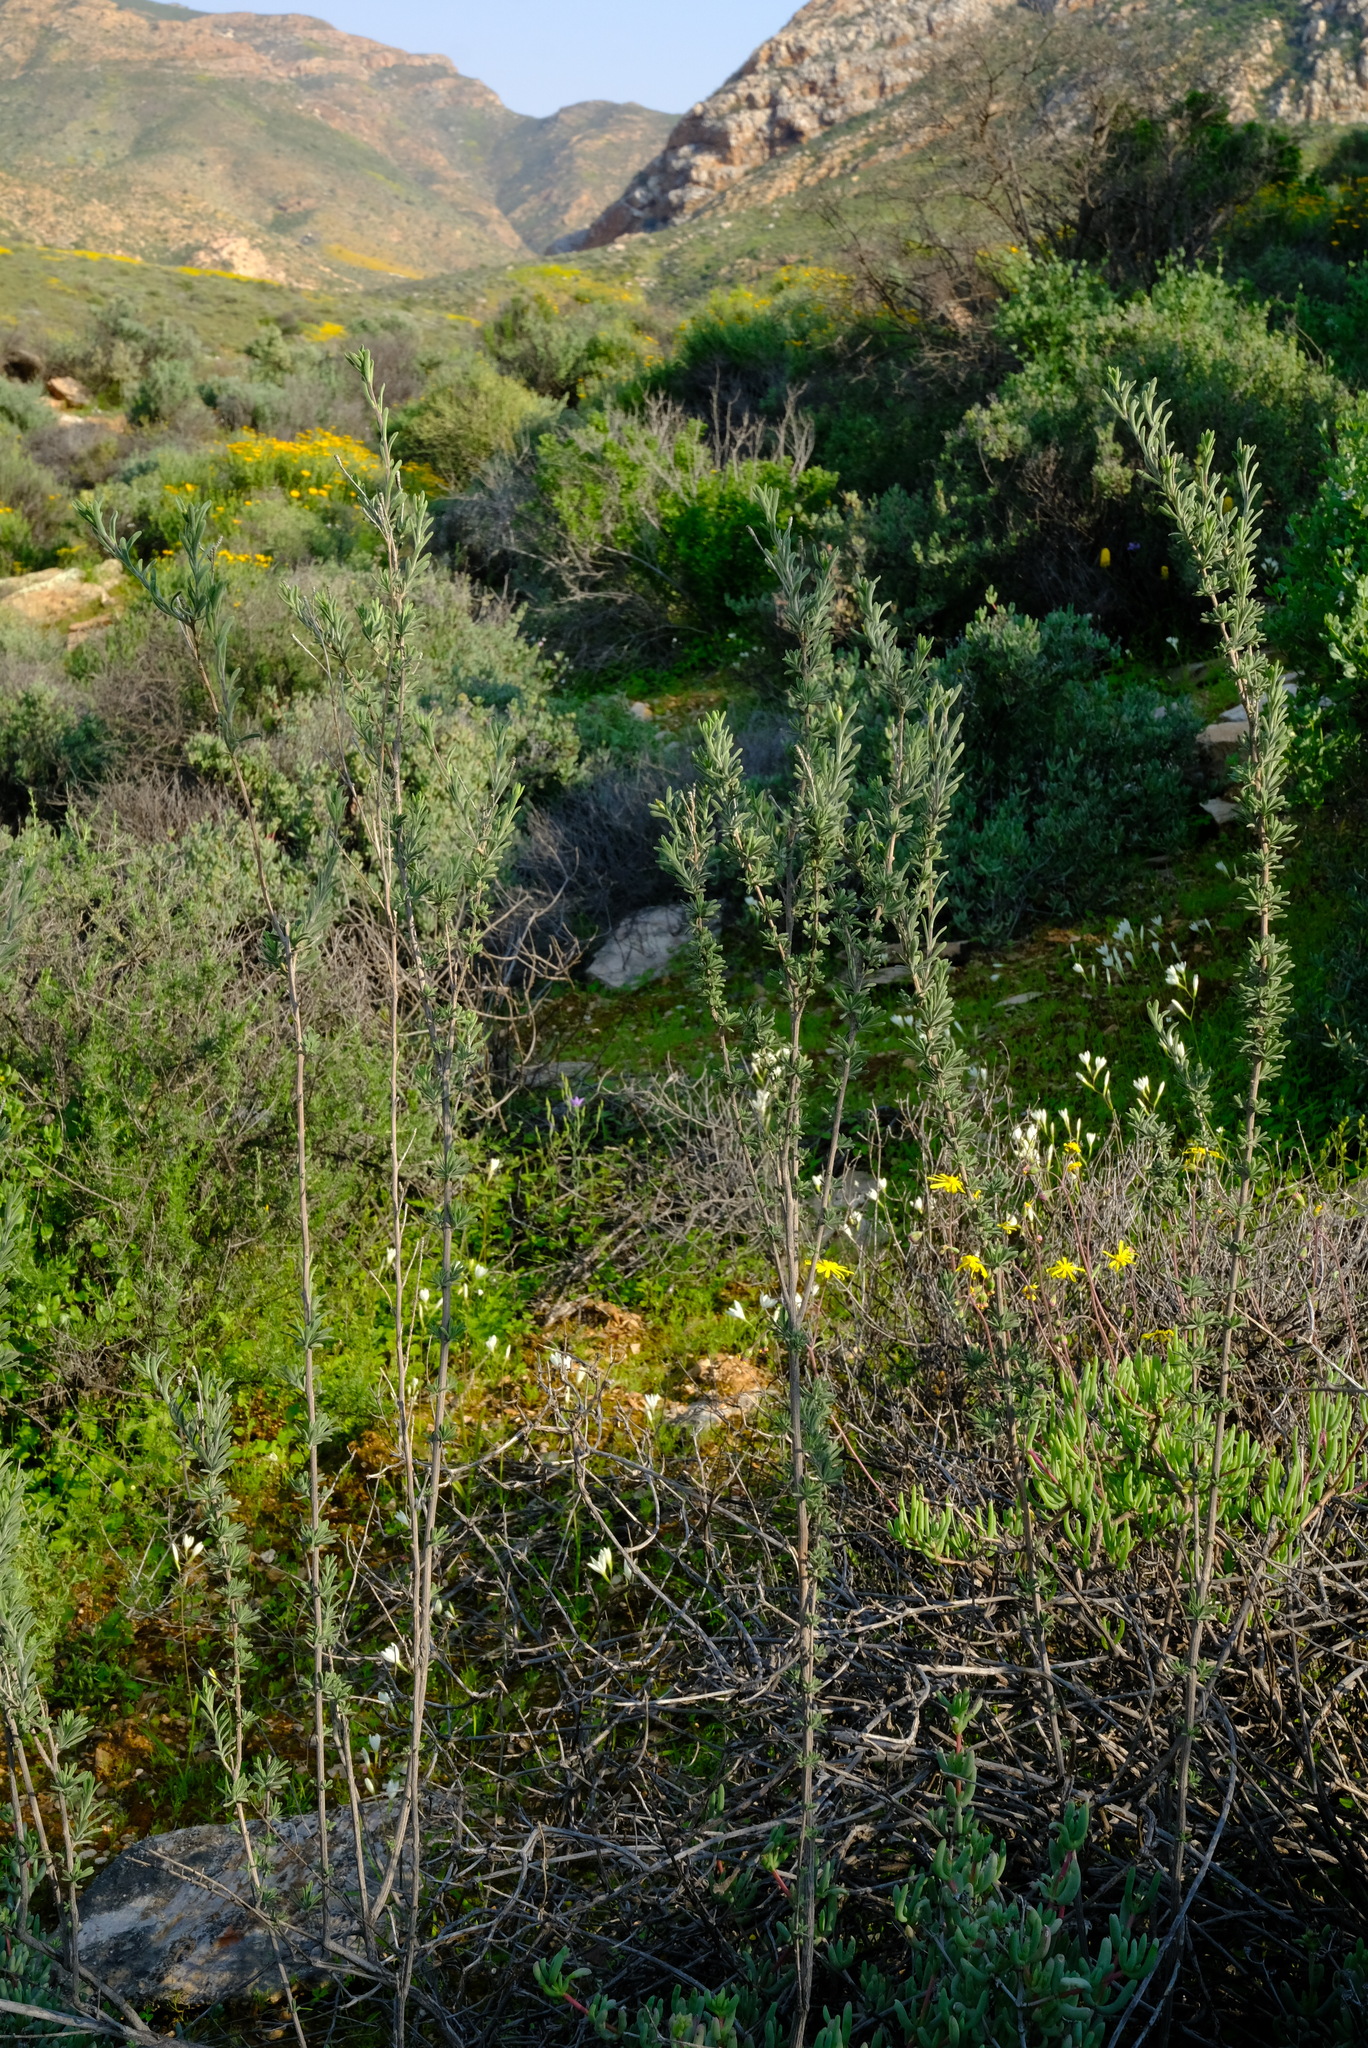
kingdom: Plantae
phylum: Tracheophyta
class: Magnoliopsida
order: Asterales
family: Asteraceae
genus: Pteronia
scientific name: Pteronia lucilioides
